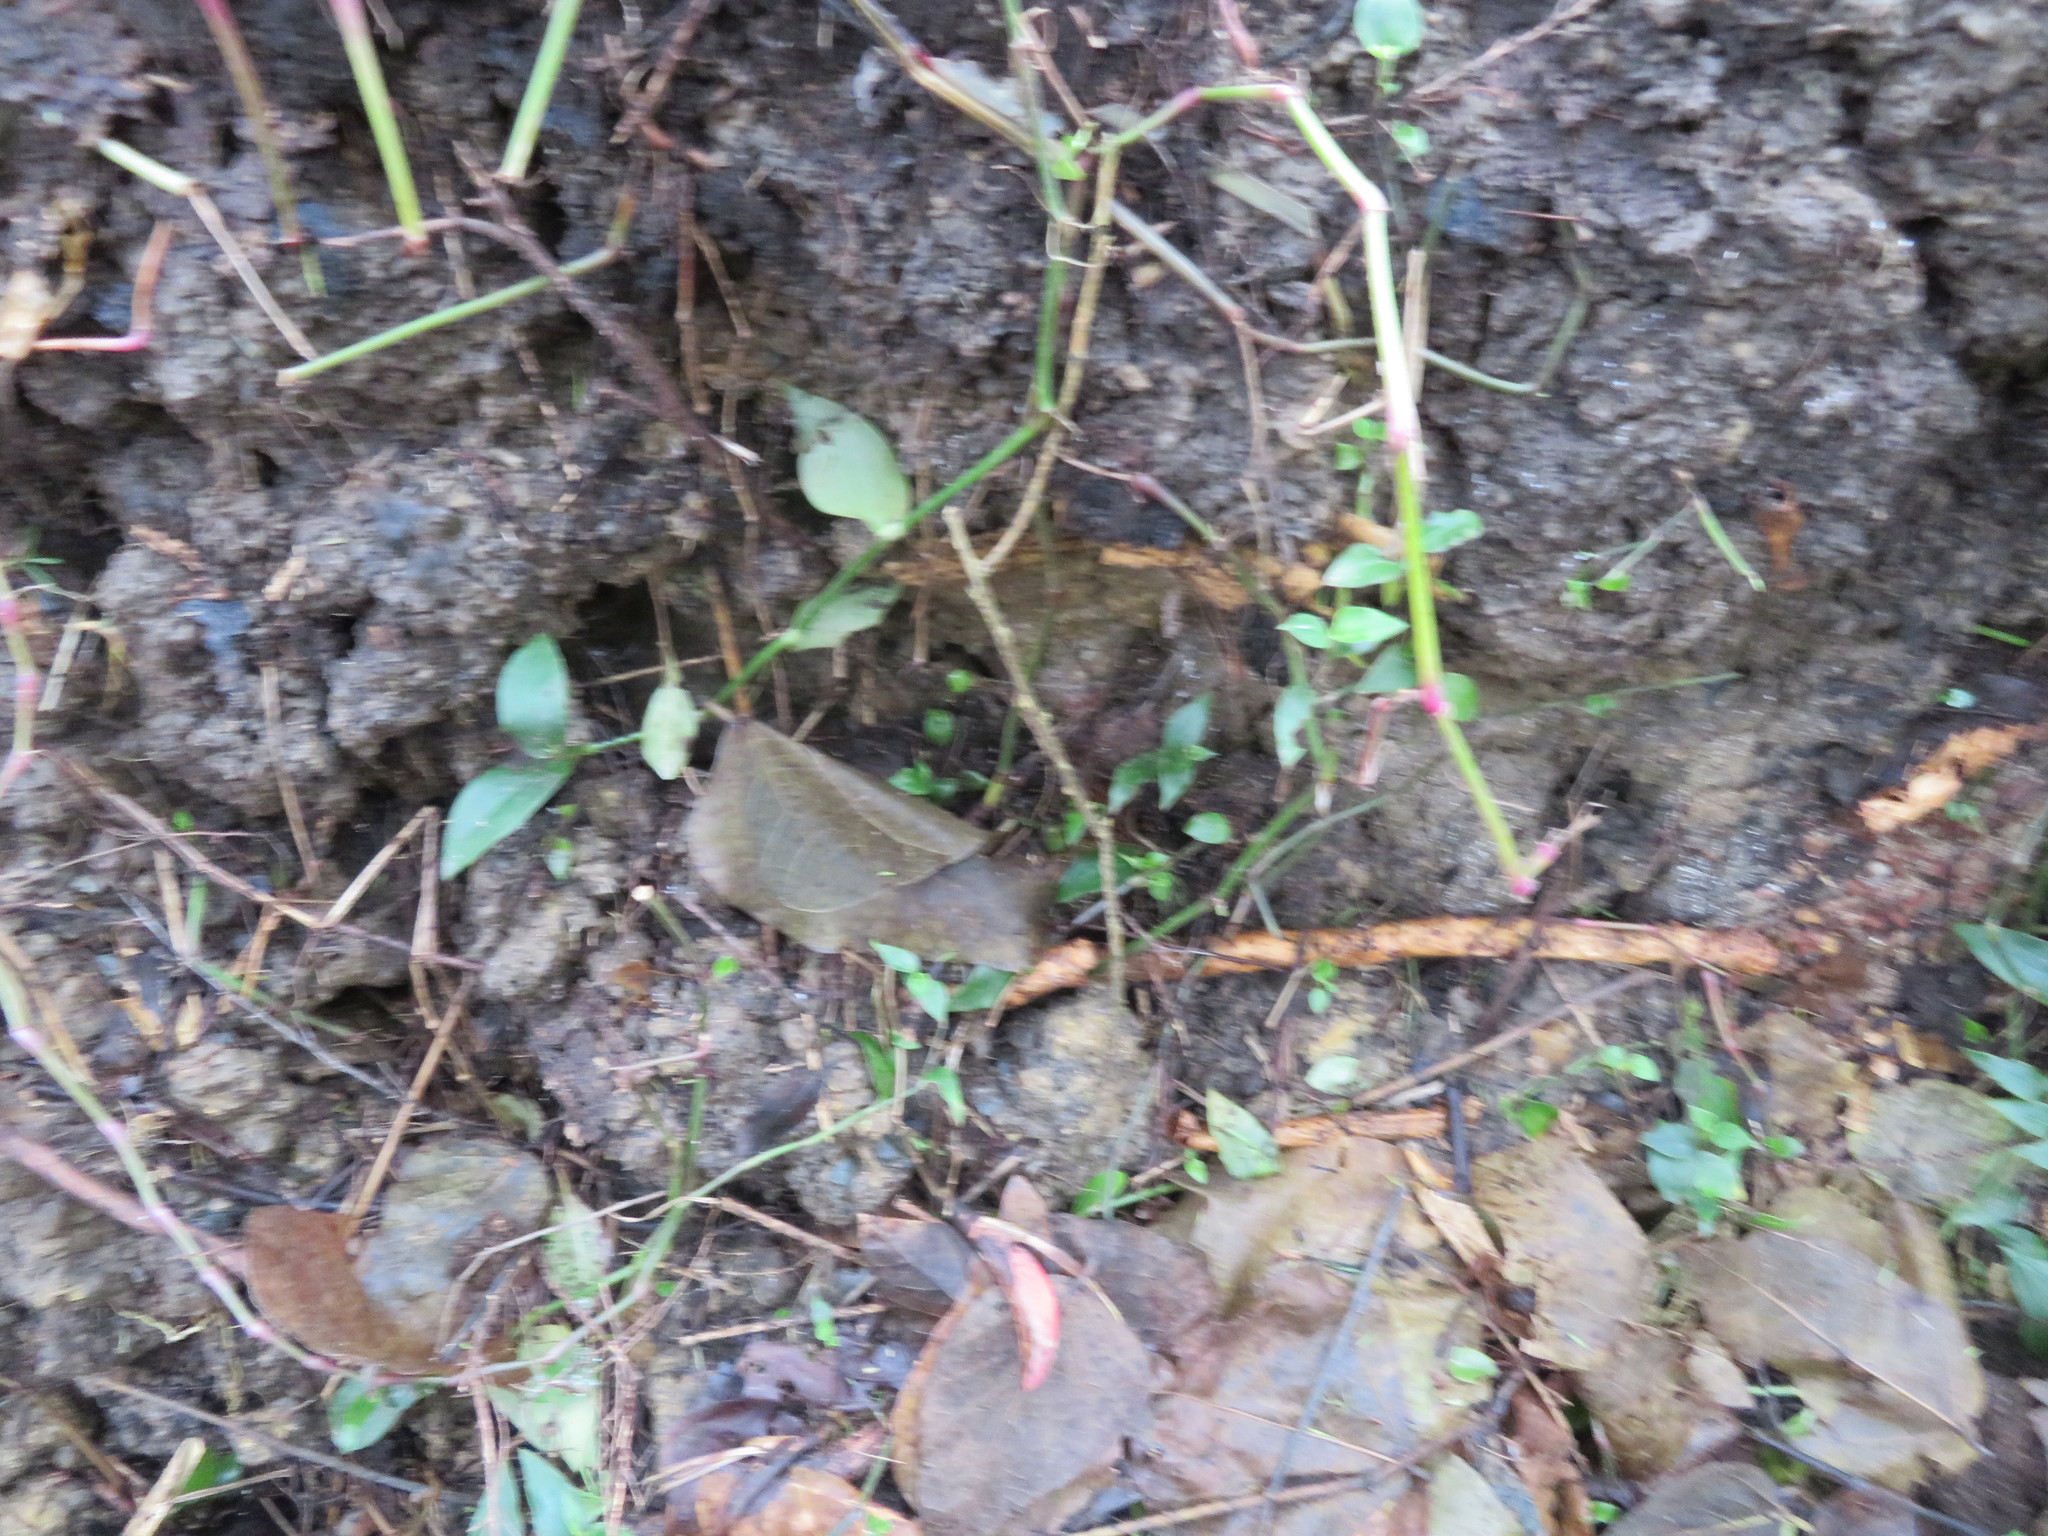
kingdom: Plantae
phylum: Tracheophyta
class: Liliopsida
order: Commelinales
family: Commelinaceae
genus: Tradescantia
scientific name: Tradescantia fluminensis
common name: Wandering-jew
